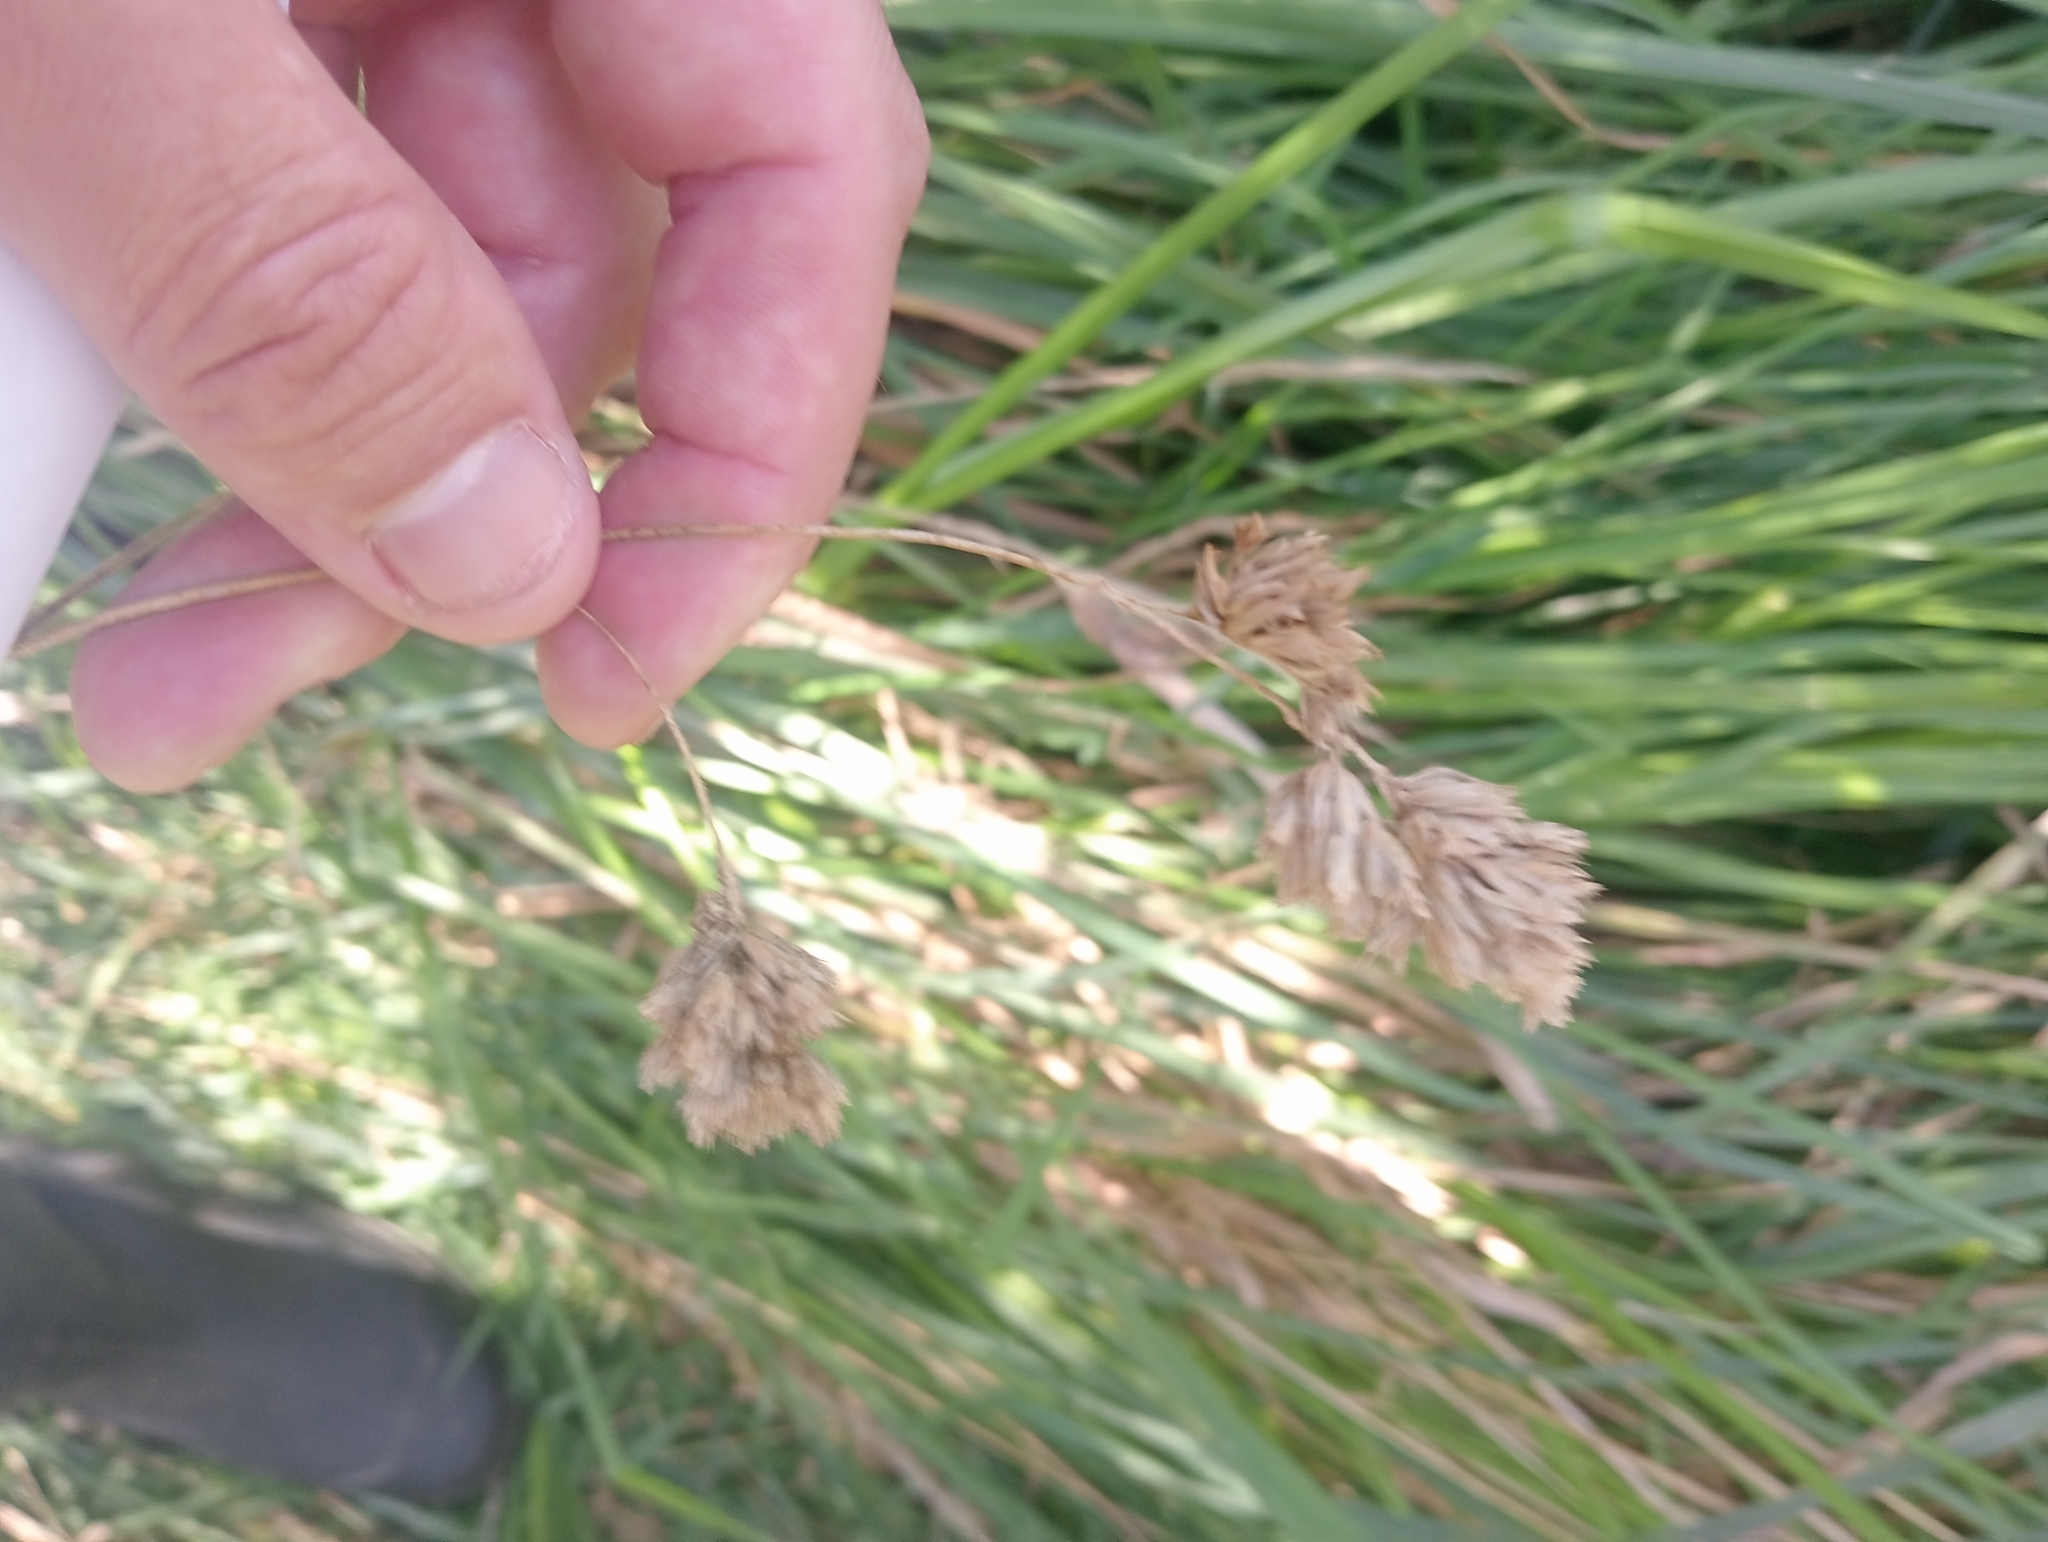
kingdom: Plantae
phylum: Tracheophyta
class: Liliopsida
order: Poales
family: Poaceae
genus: Dactylis
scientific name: Dactylis glomerata
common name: Orchardgrass
